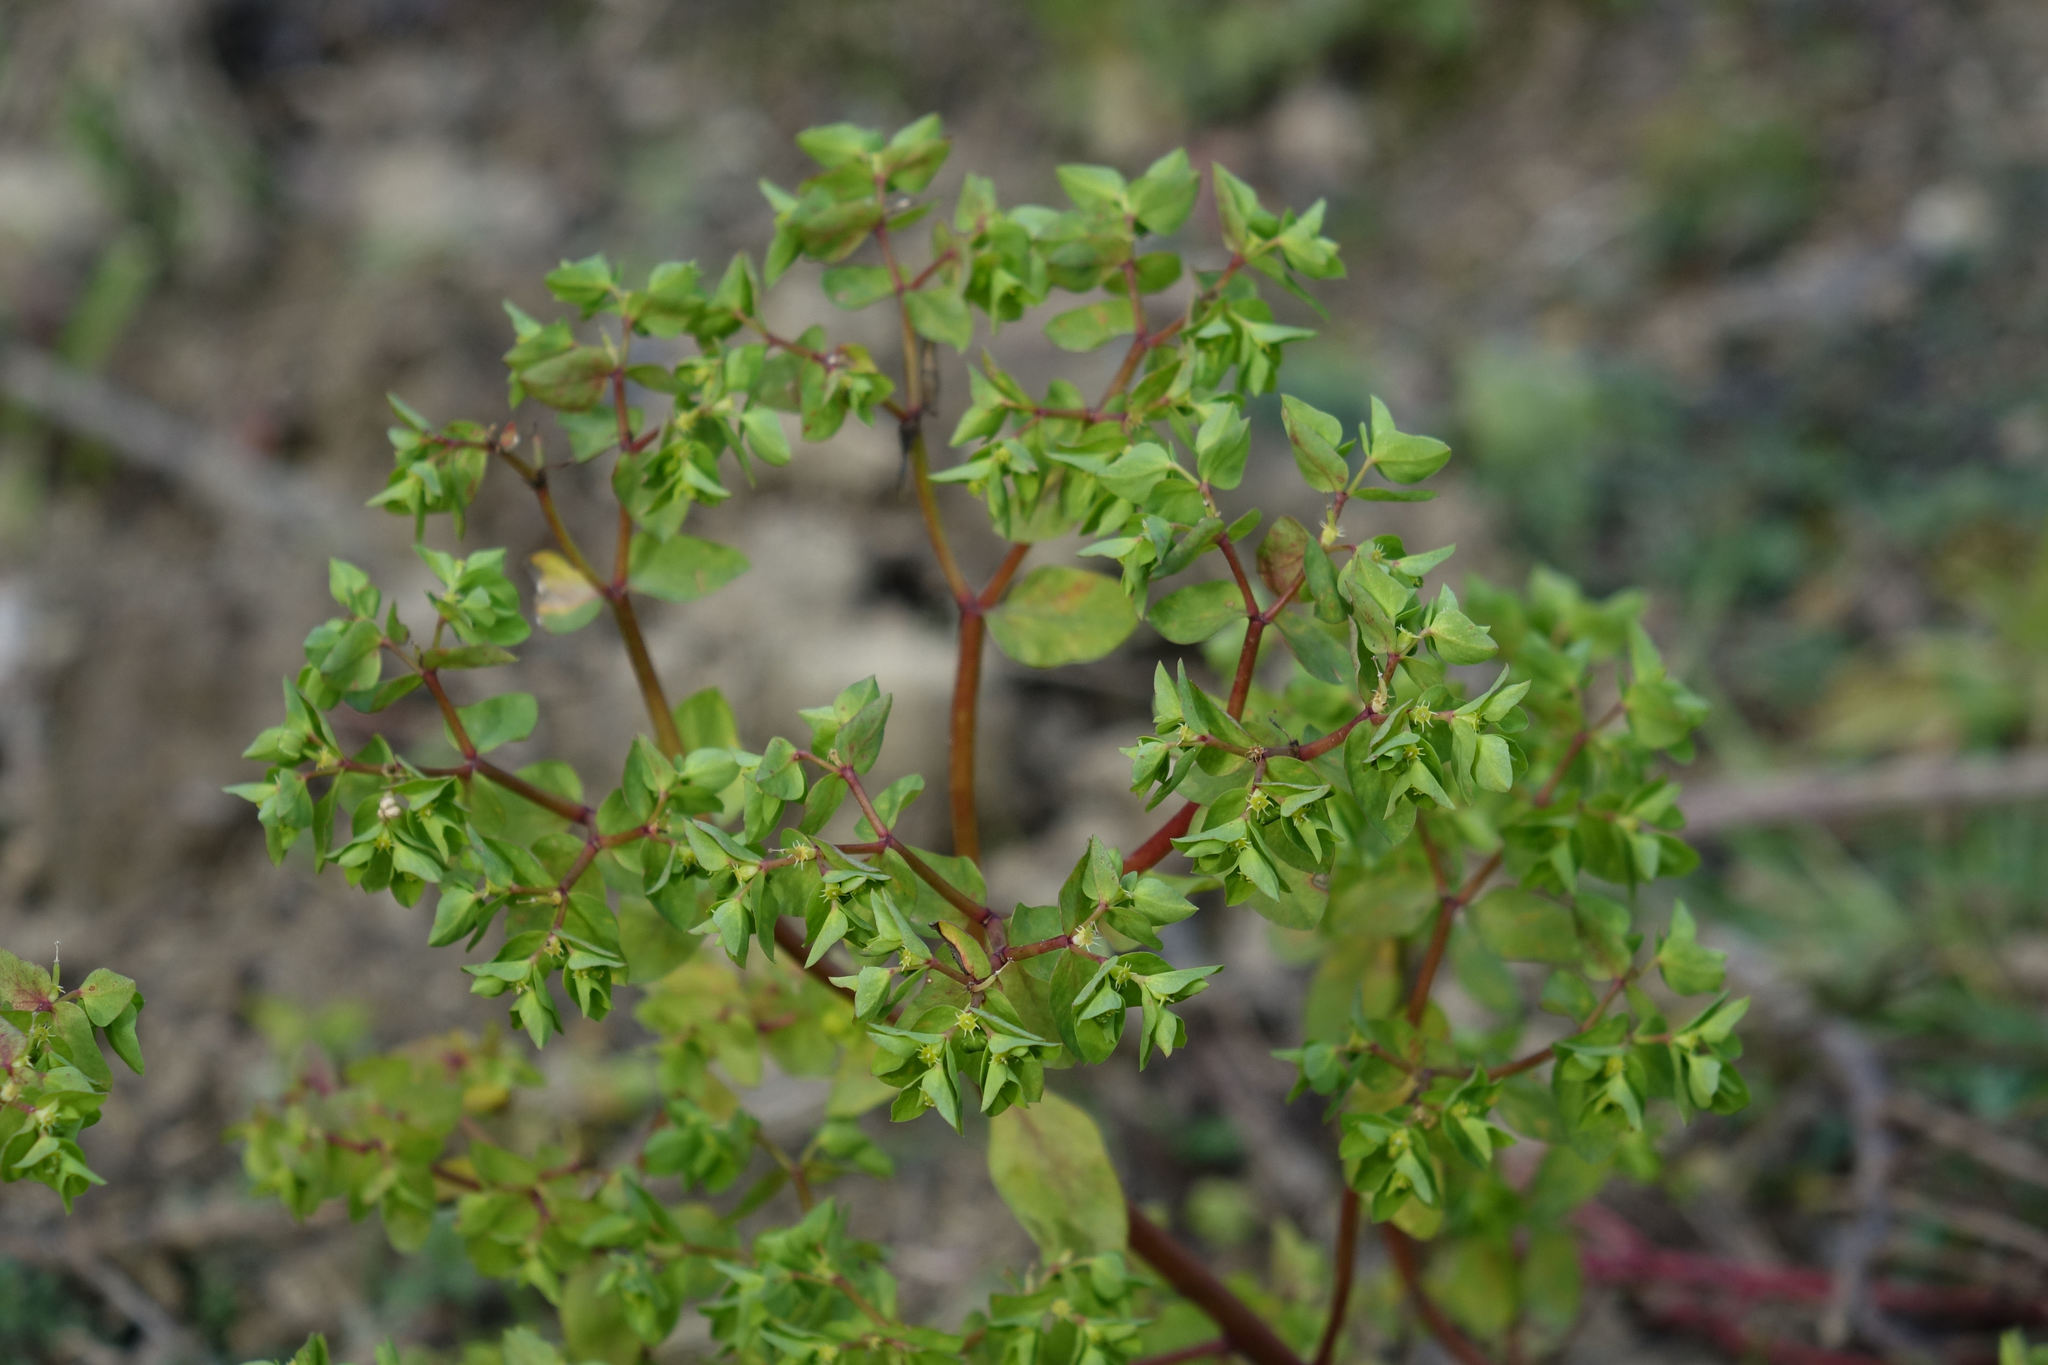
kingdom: Plantae
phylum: Tracheophyta
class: Magnoliopsida
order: Malpighiales
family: Euphorbiaceae
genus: Euphorbia
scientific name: Euphorbia peplus
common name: Petty spurge
